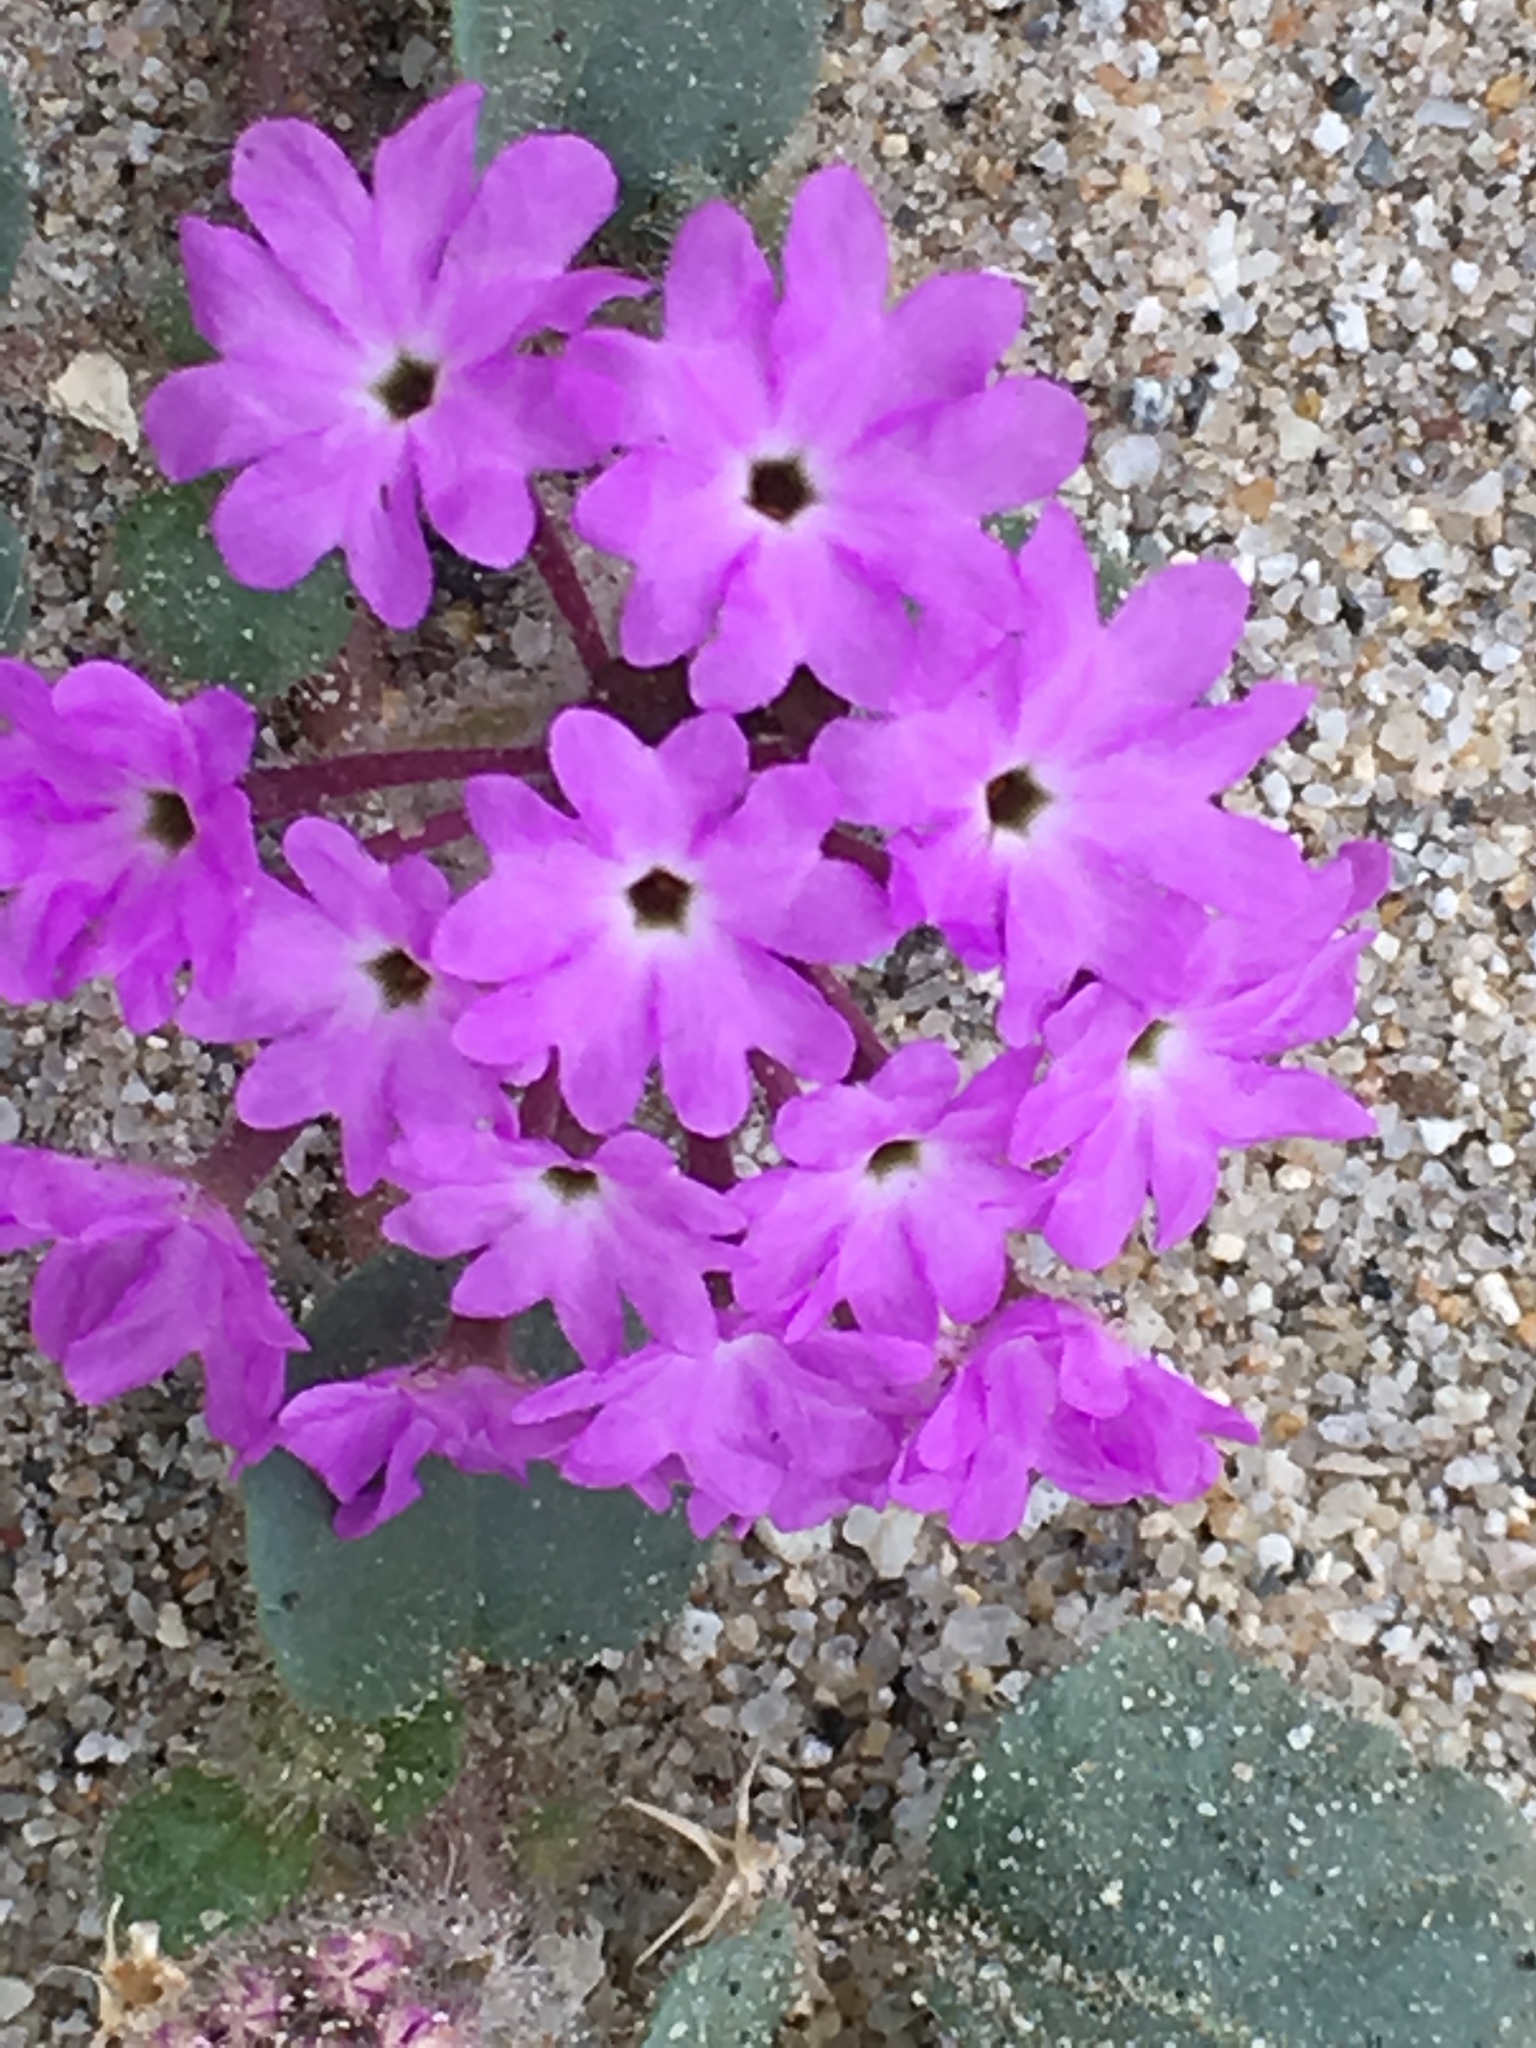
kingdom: Plantae
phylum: Tracheophyta
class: Magnoliopsida
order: Caryophyllales
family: Nyctaginaceae
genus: Abronia
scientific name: Abronia villosa
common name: Desert sand-verbena
